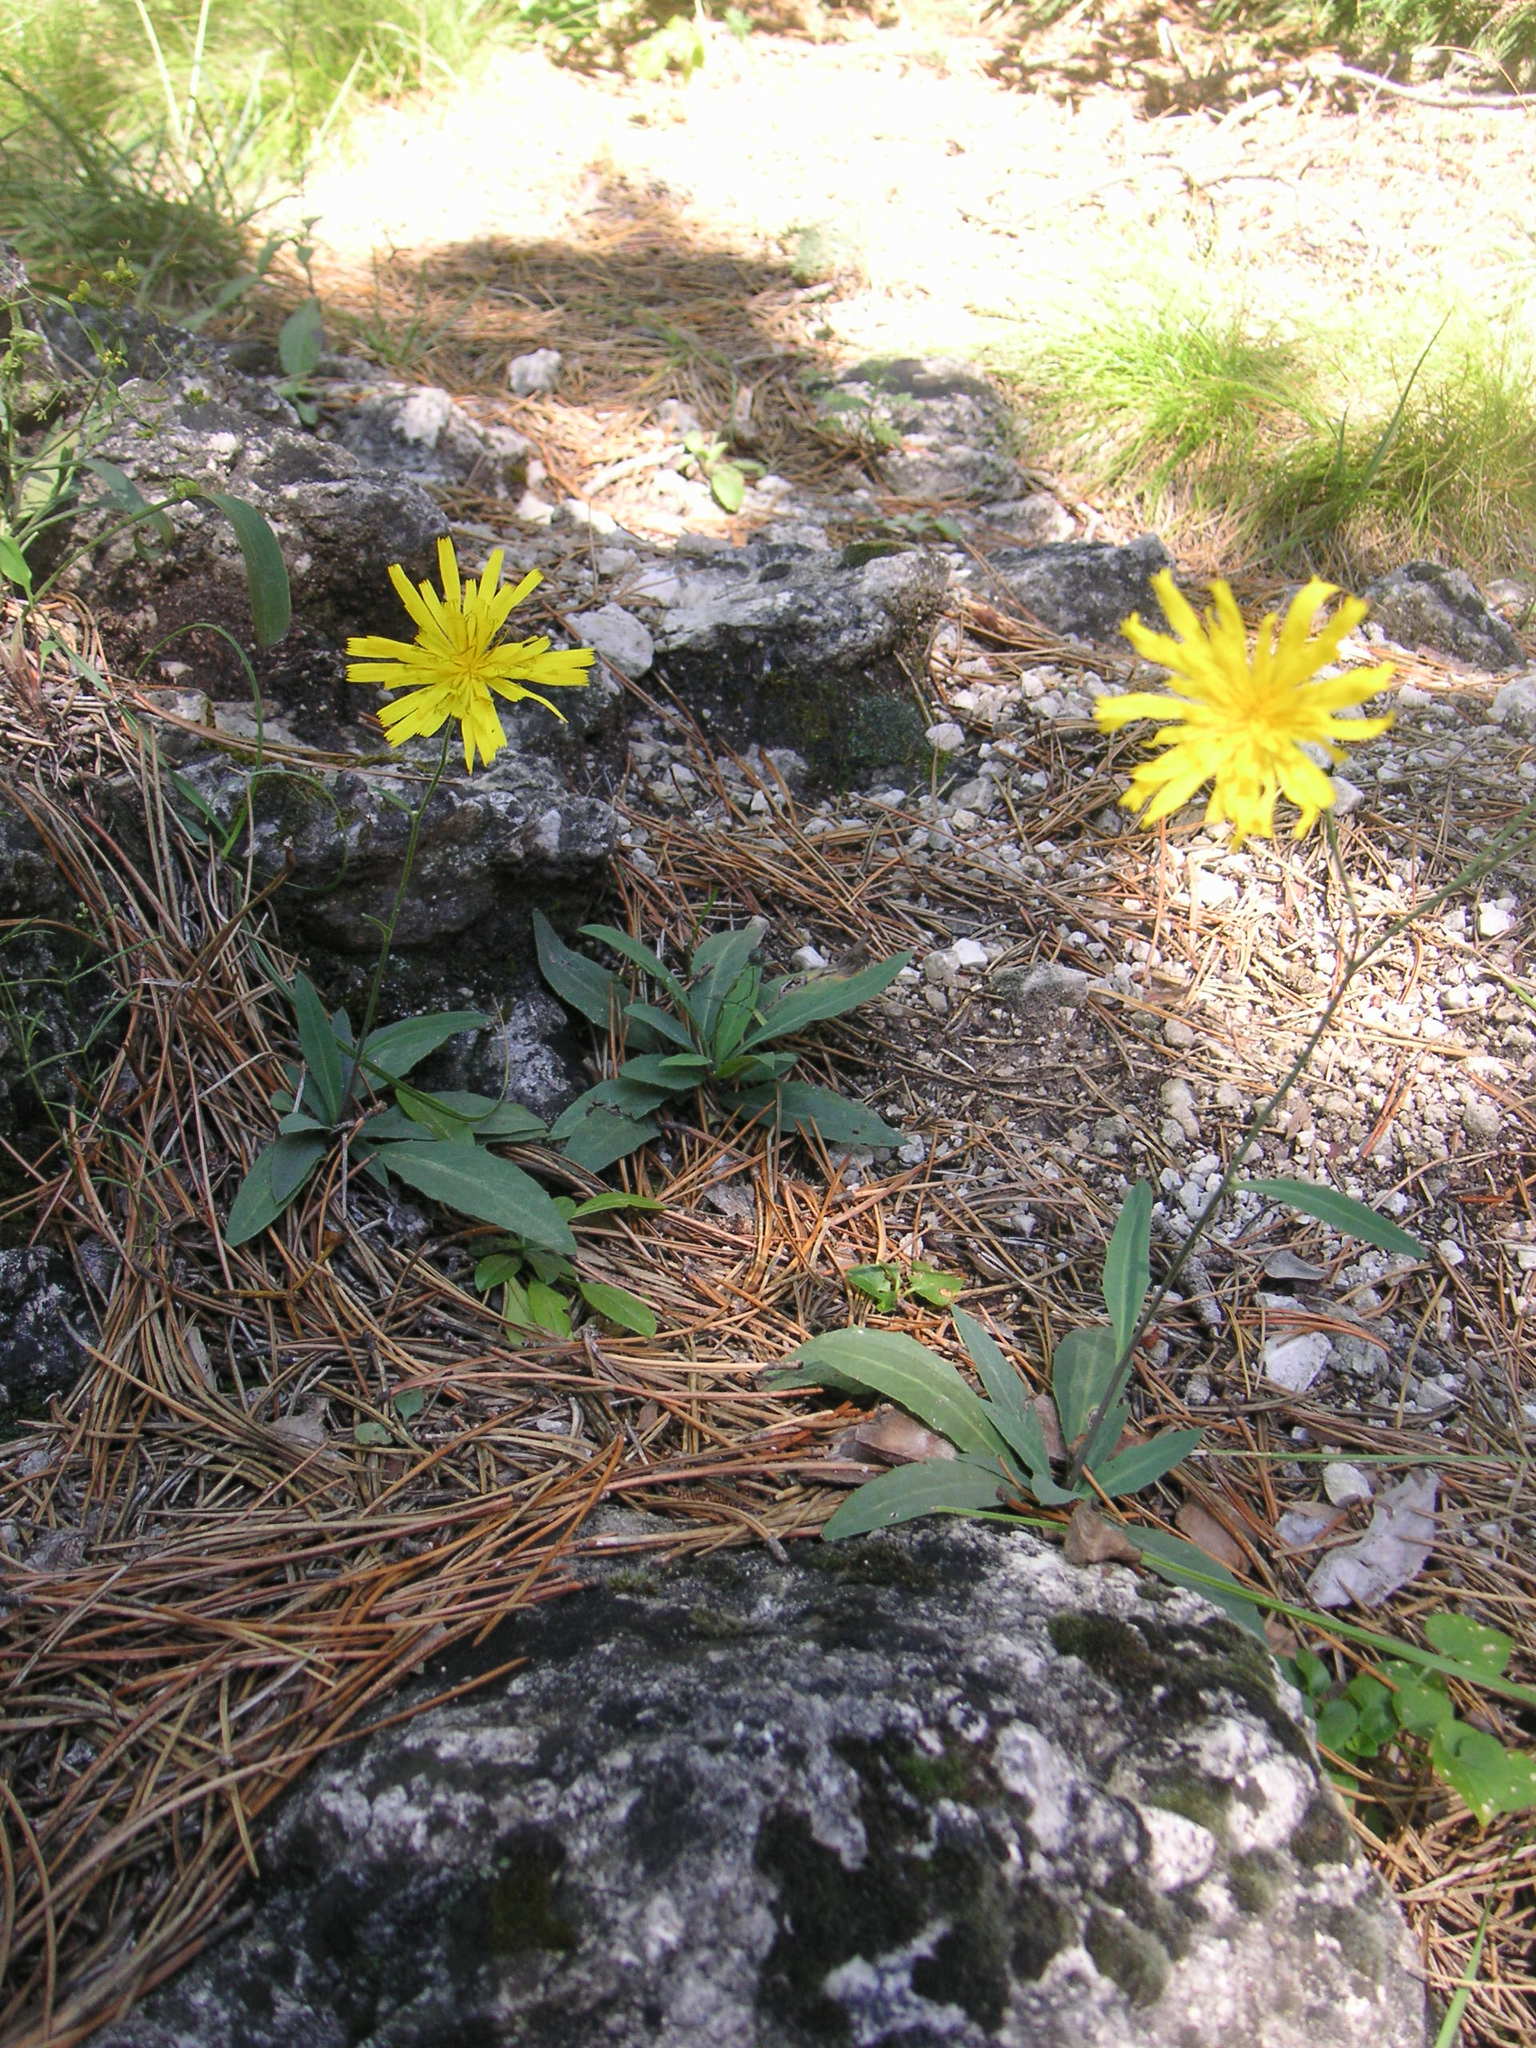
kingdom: Plantae
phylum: Tracheophyta
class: Magnoliopsida
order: Asterales
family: Asteraceae
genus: Hieracium
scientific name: Hieracium saxatile
